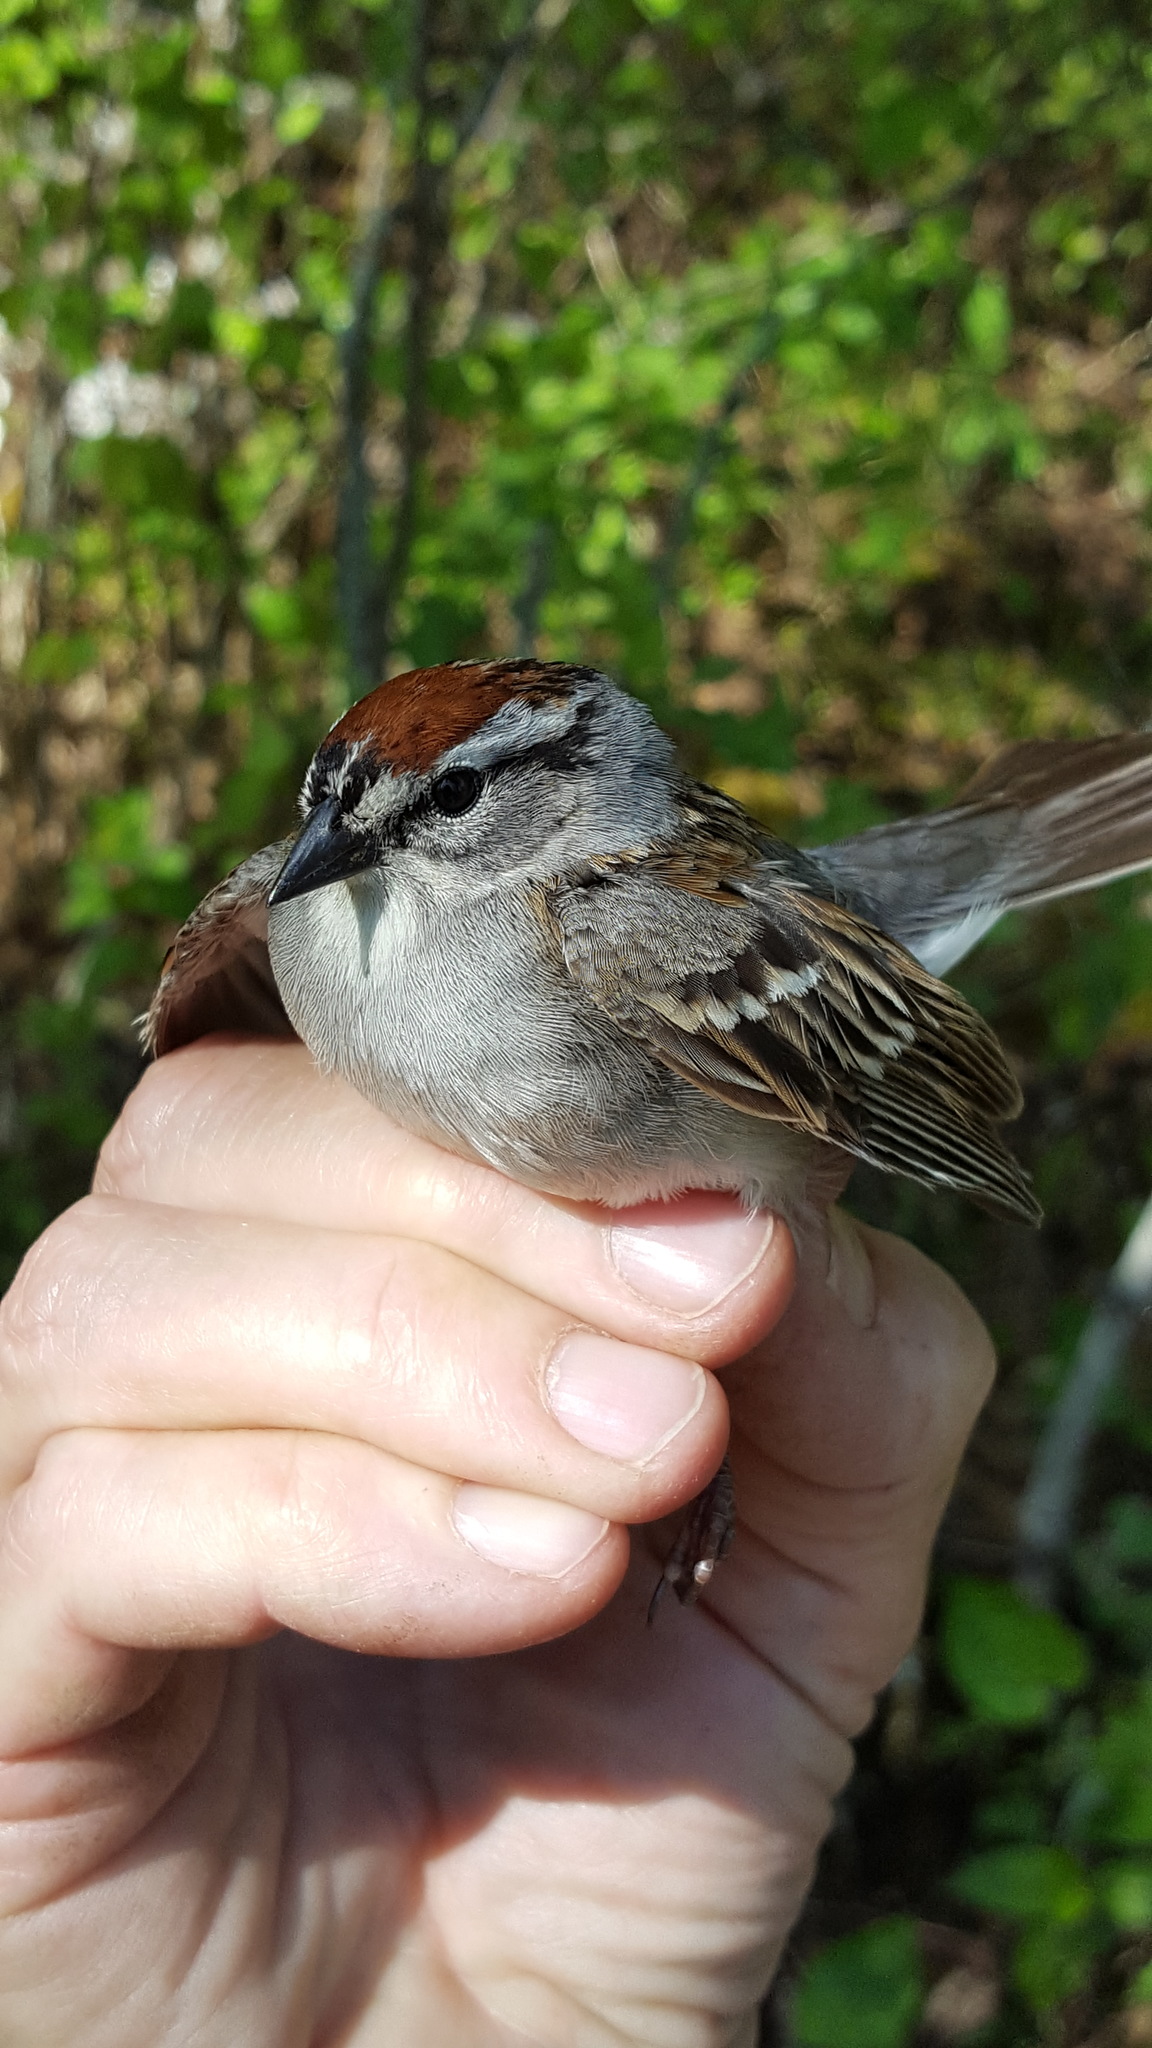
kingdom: Animalia
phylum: Chordata
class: Aves
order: Passeriformes
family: Passerellidae
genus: Spizella
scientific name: Spizella passerina
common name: Chipping sparrow
